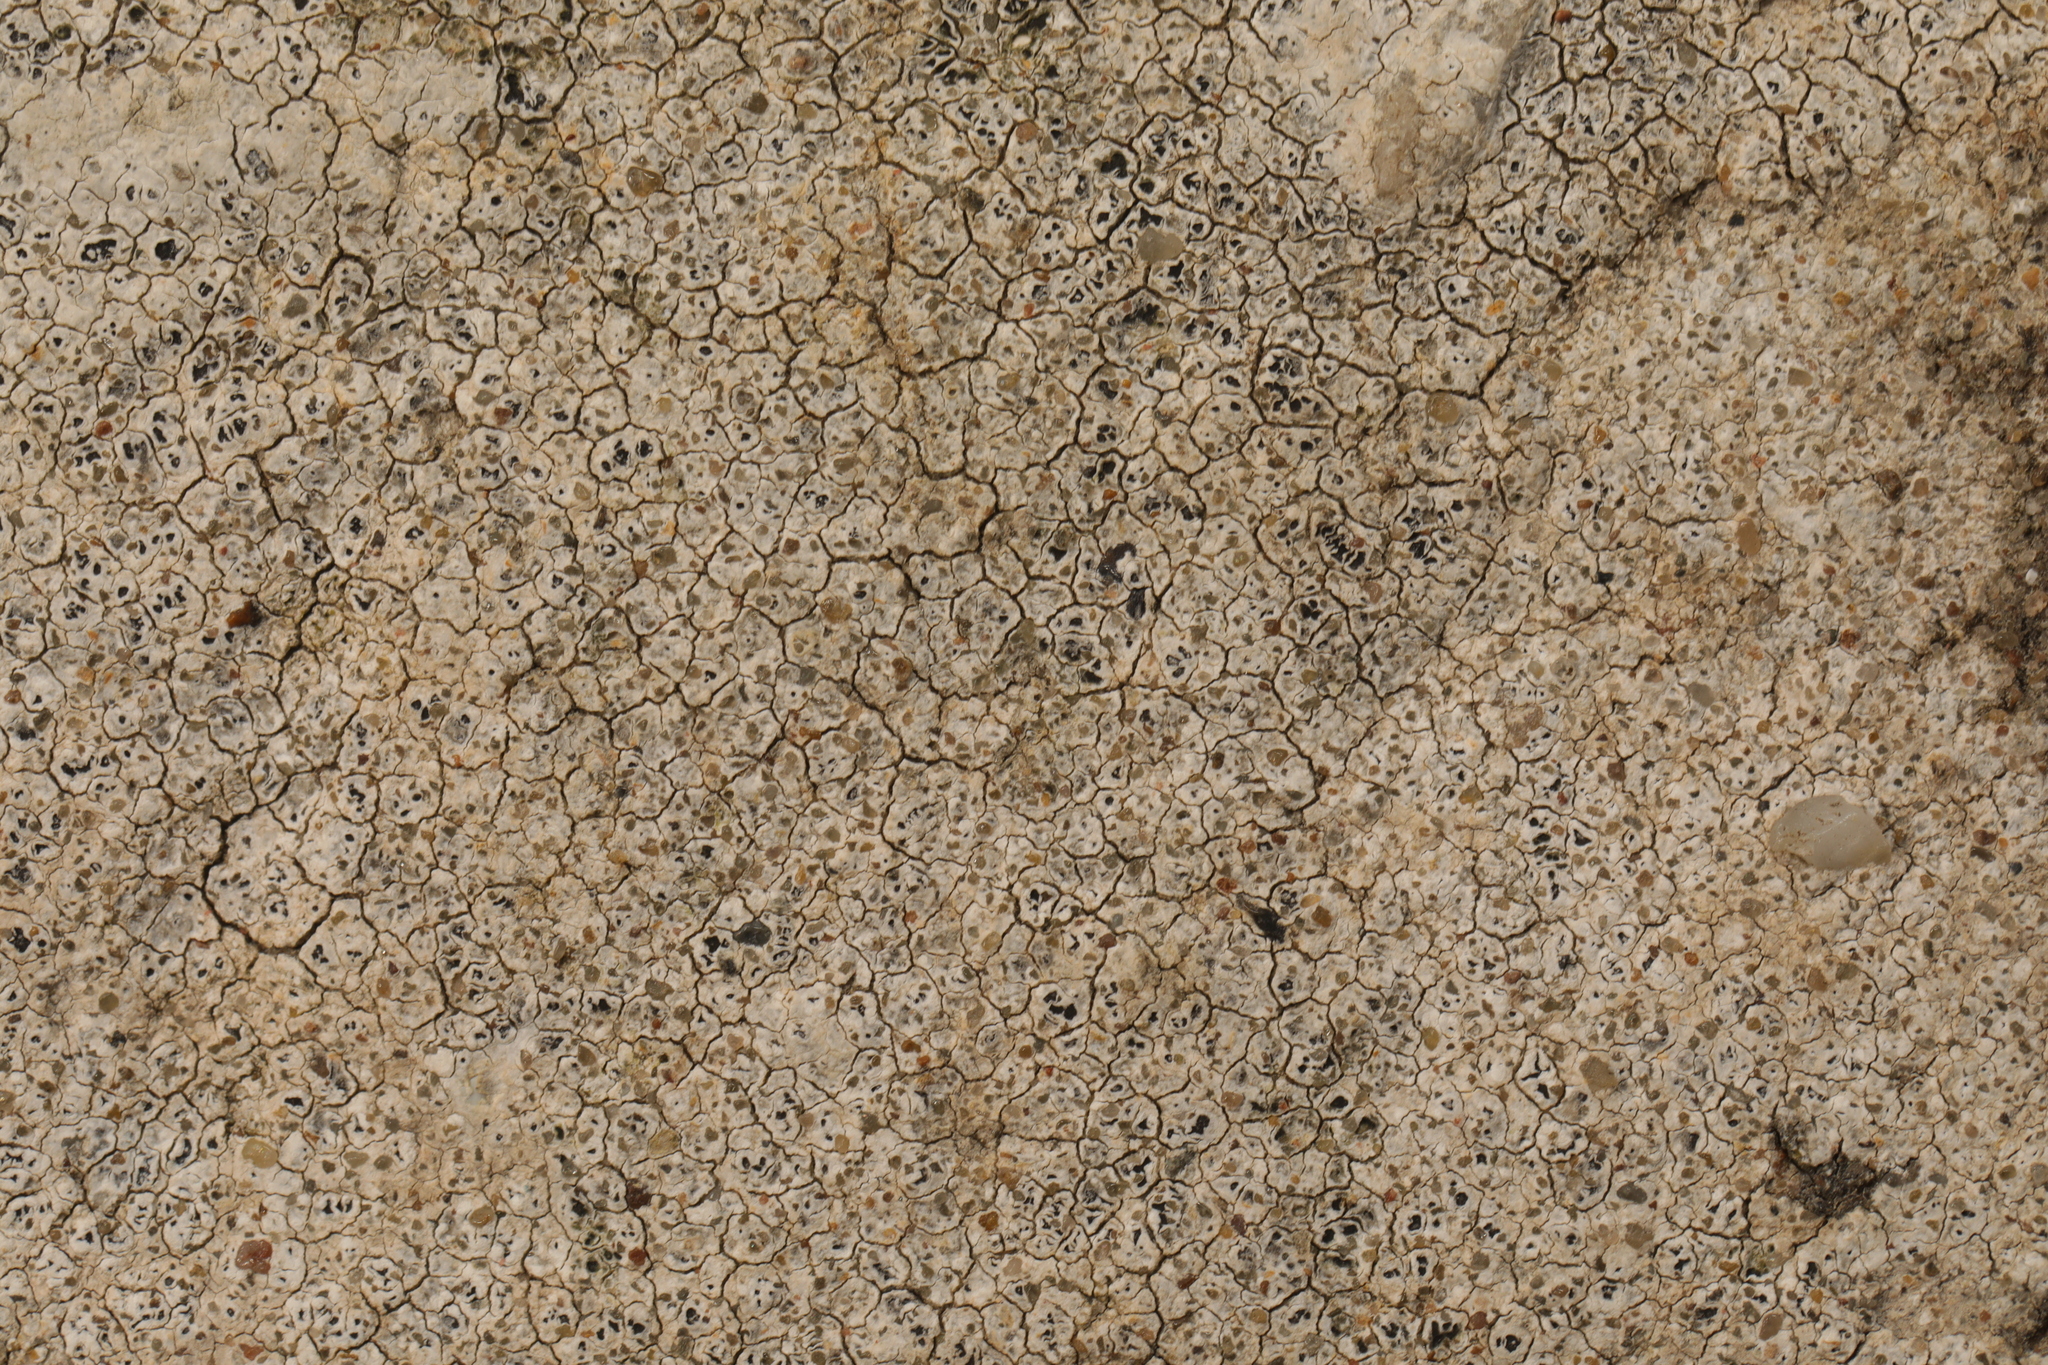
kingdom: Fungi
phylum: Ascomycota
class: Lecanoromycetes
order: Pertusariales
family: Megasporaceae
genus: Circinaria
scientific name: Circinaria hoffmanniana
